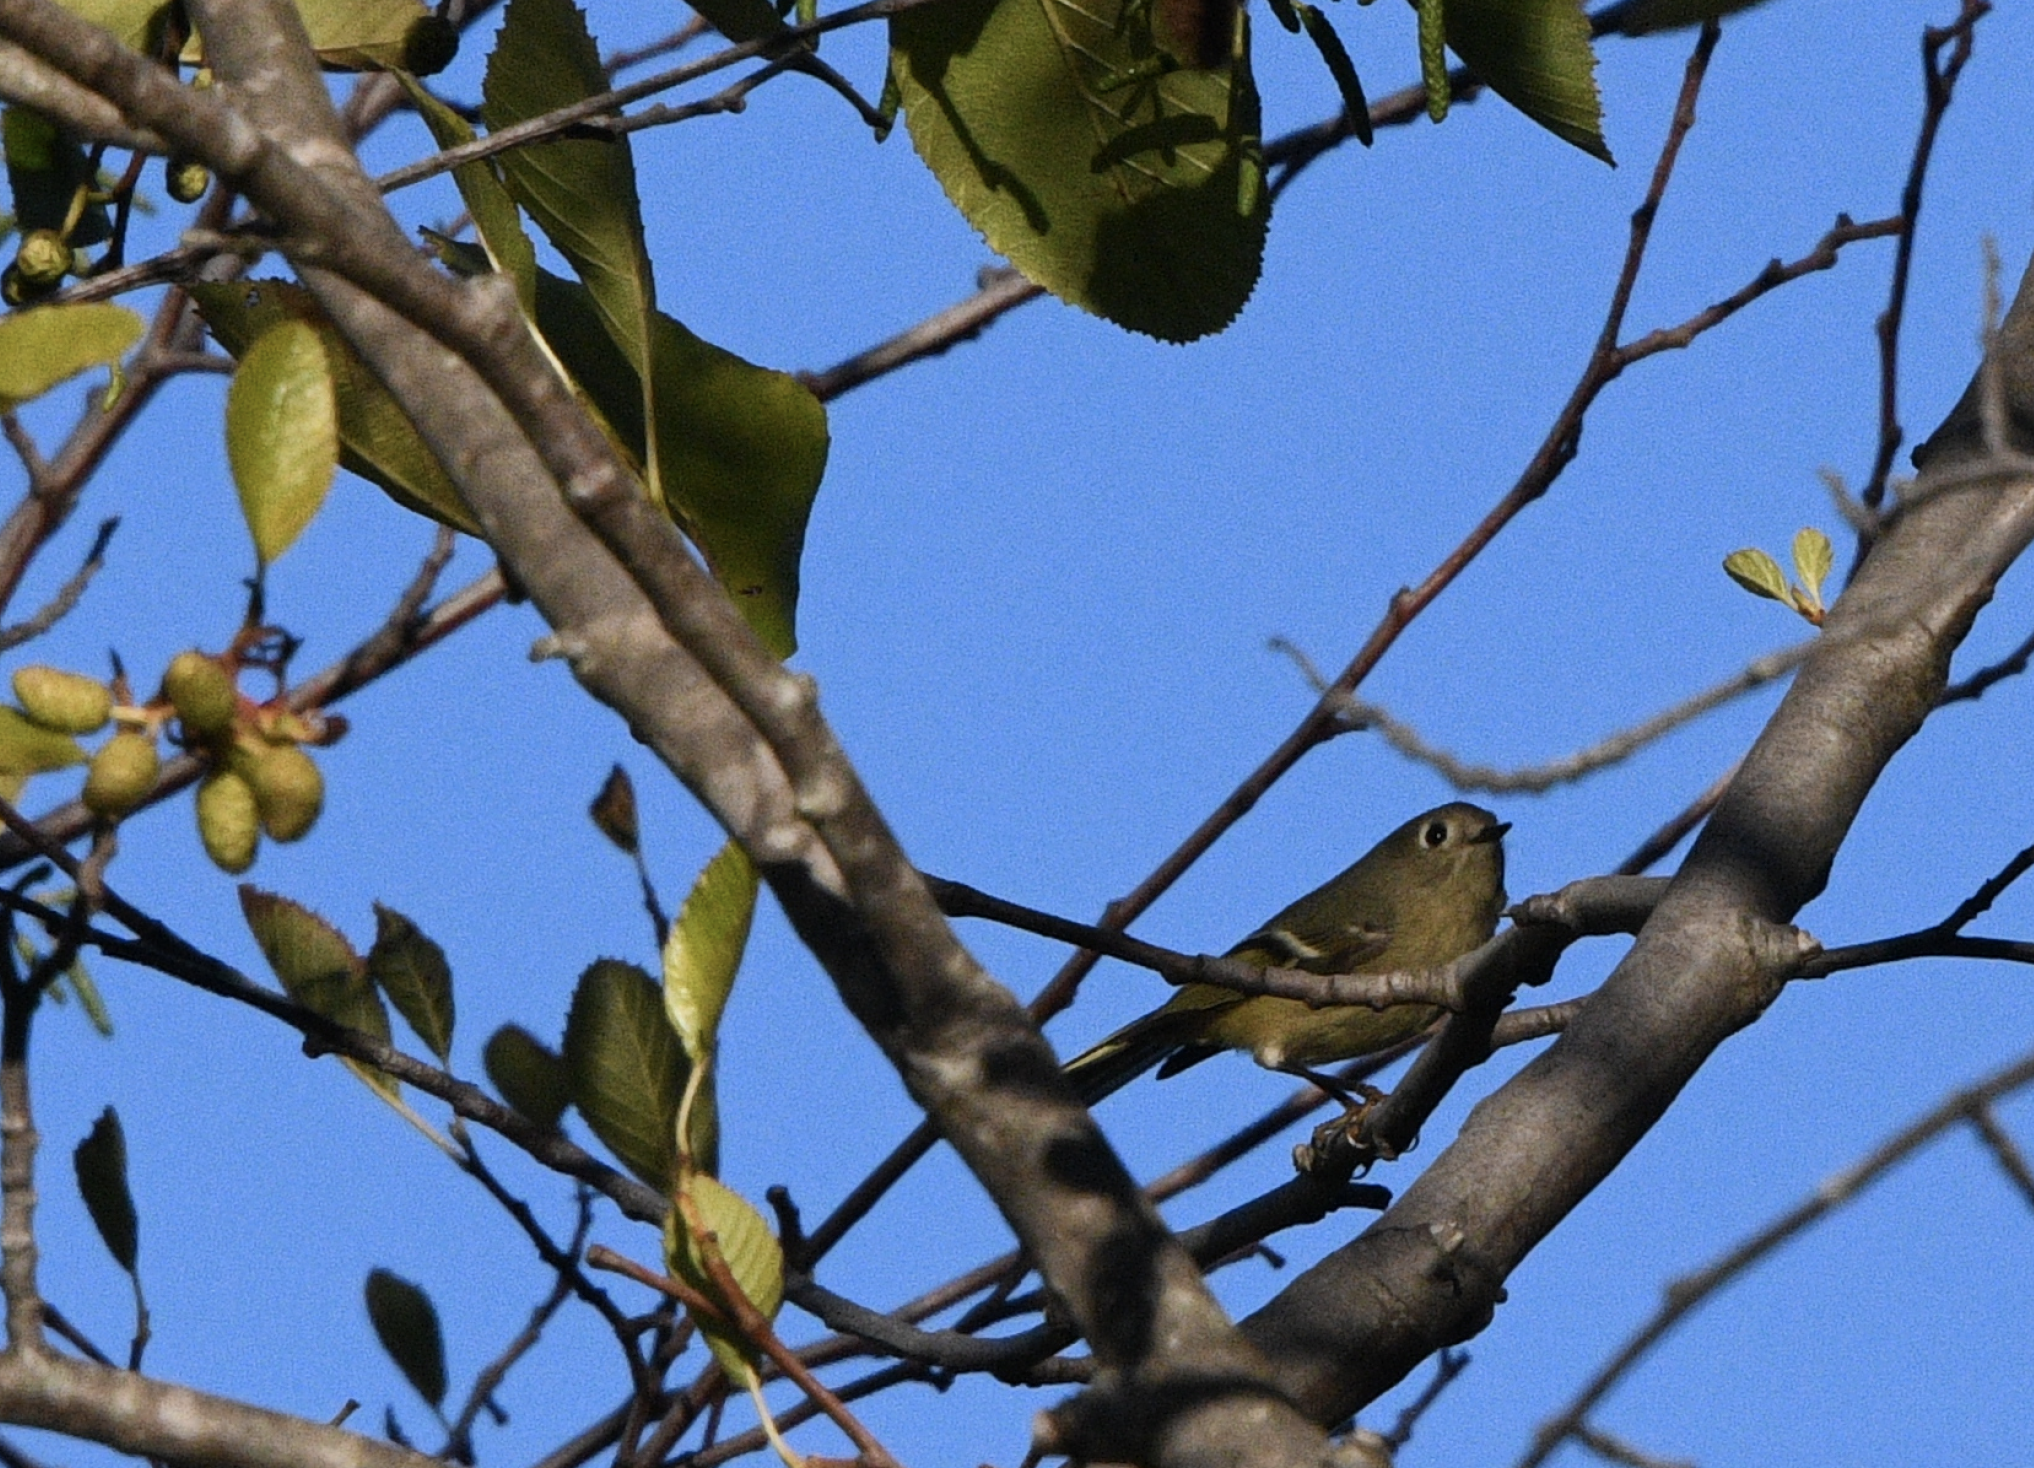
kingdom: Animalia
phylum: Chordata
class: Aves
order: Passeriformes
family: Regulidae
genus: Regulus
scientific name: Regulus calendula
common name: Ruby-crowned kinglet
